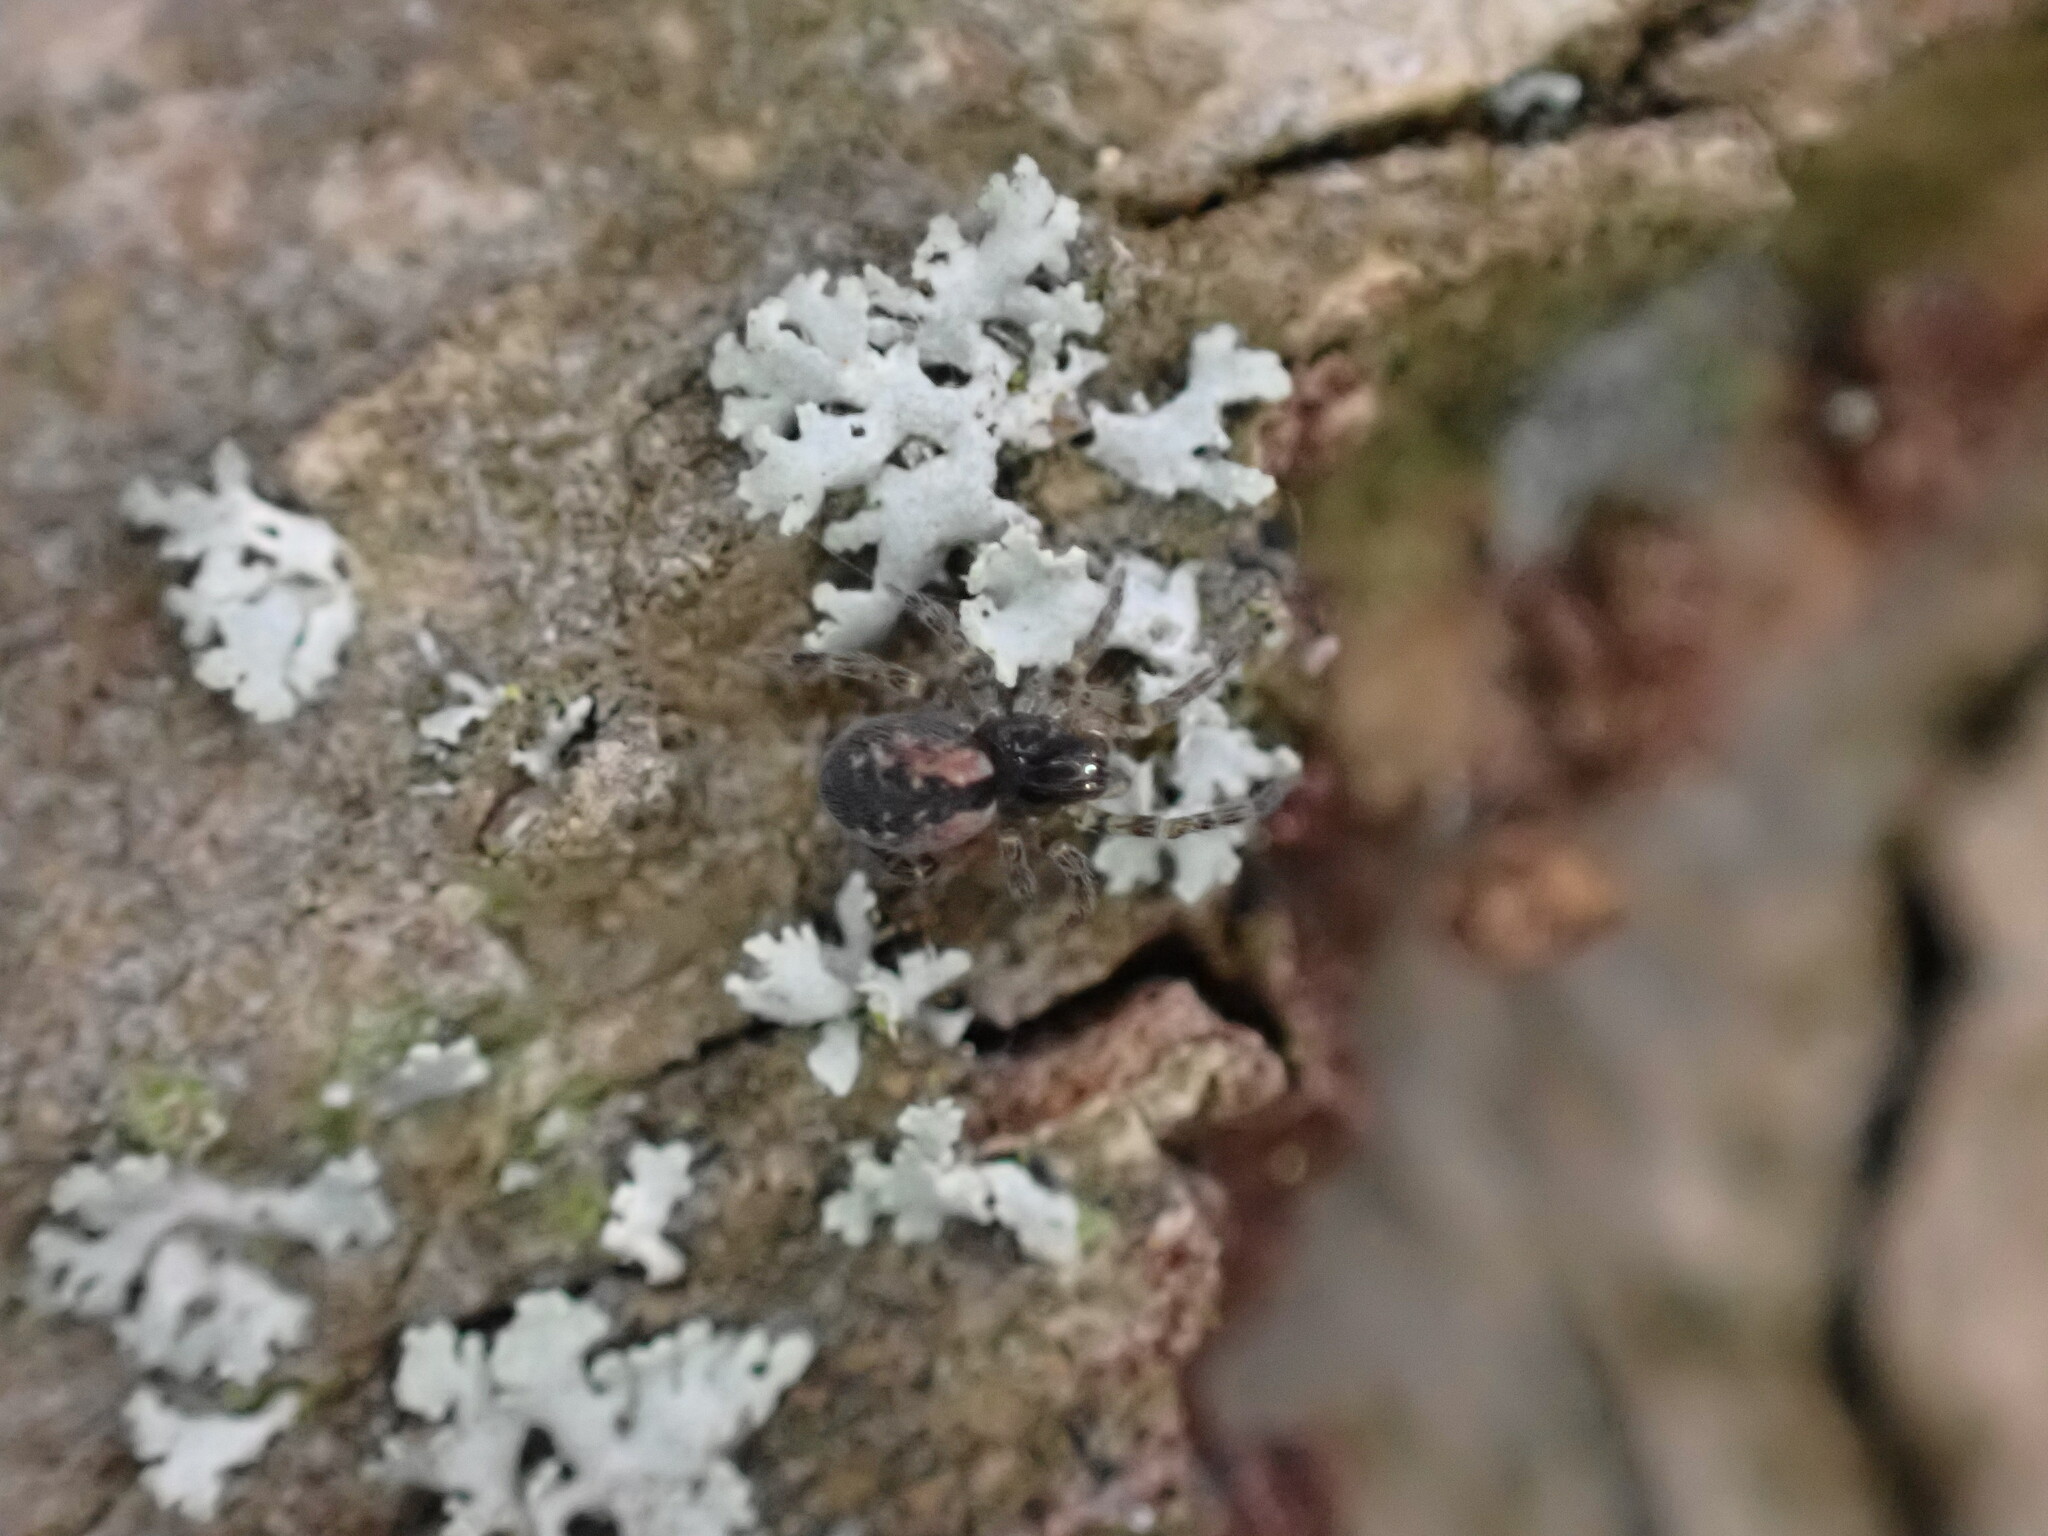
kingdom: Animalia
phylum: Arthropoda
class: Arachnida
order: Araneae
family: Dictynidae
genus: Lathys
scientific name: Lathys humilis
